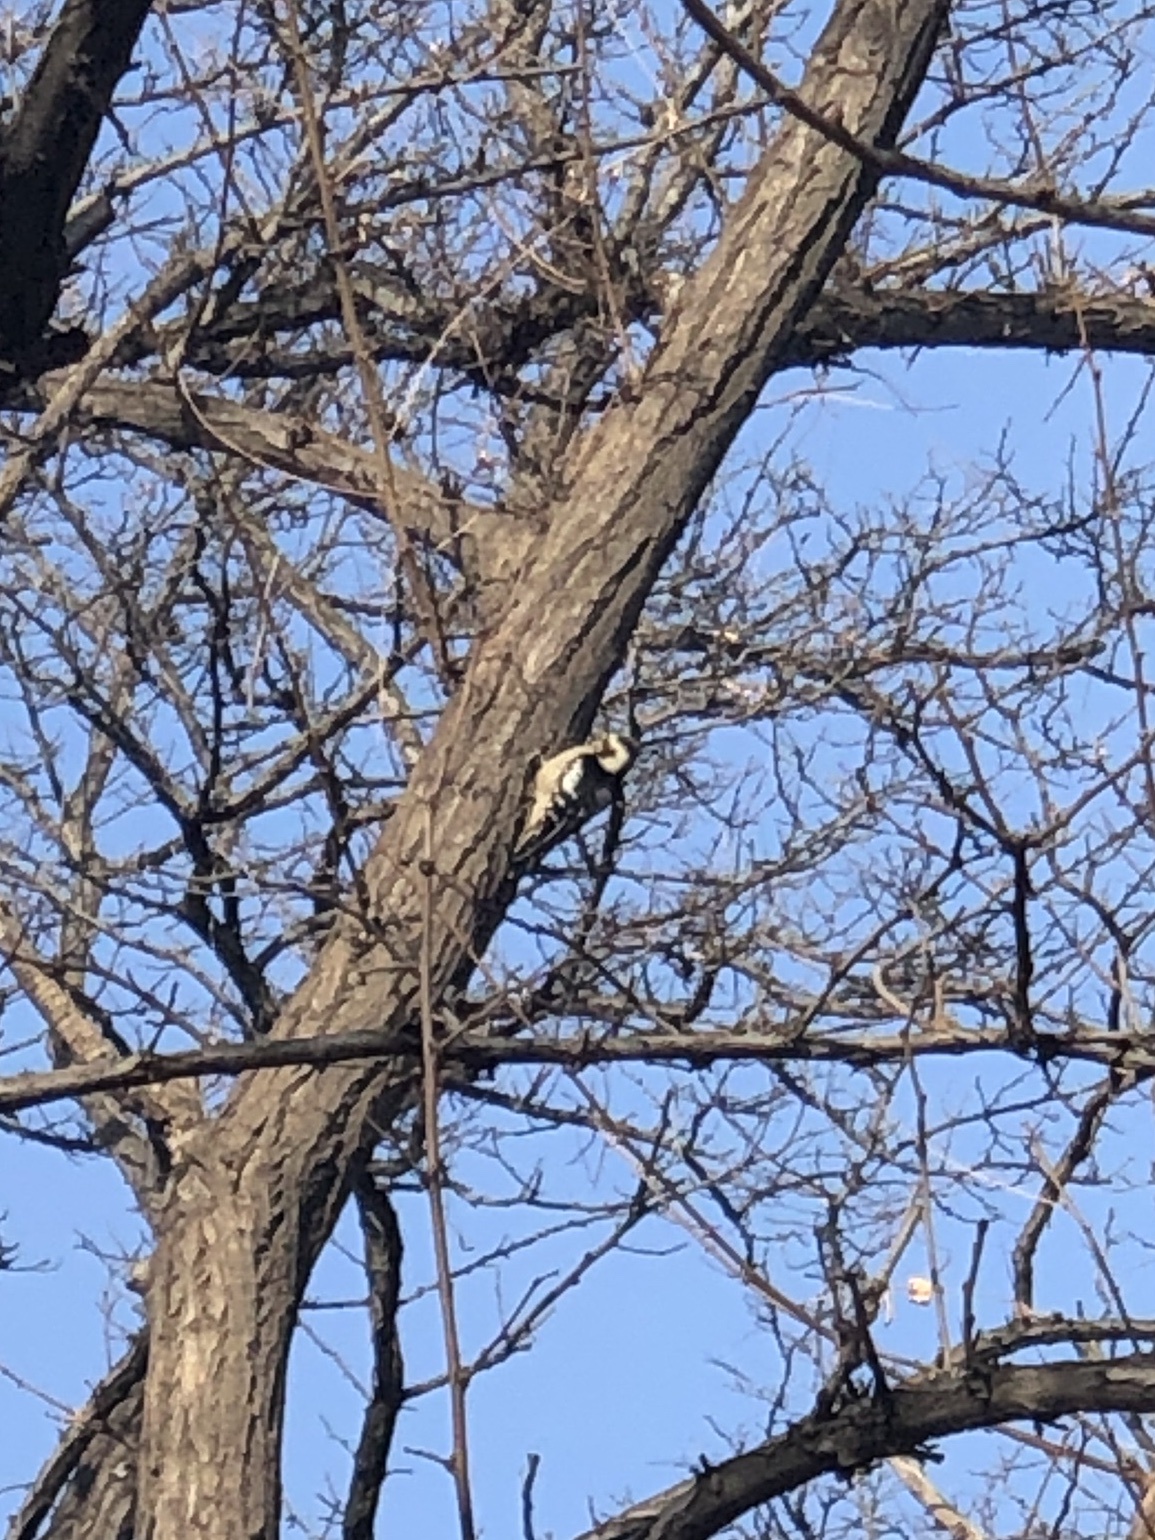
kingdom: Animalia
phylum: Chordata
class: Aves
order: Piciformes
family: Picidae
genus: Dendrocopos
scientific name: Dendrocopos major
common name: Great spotted woodpecker
